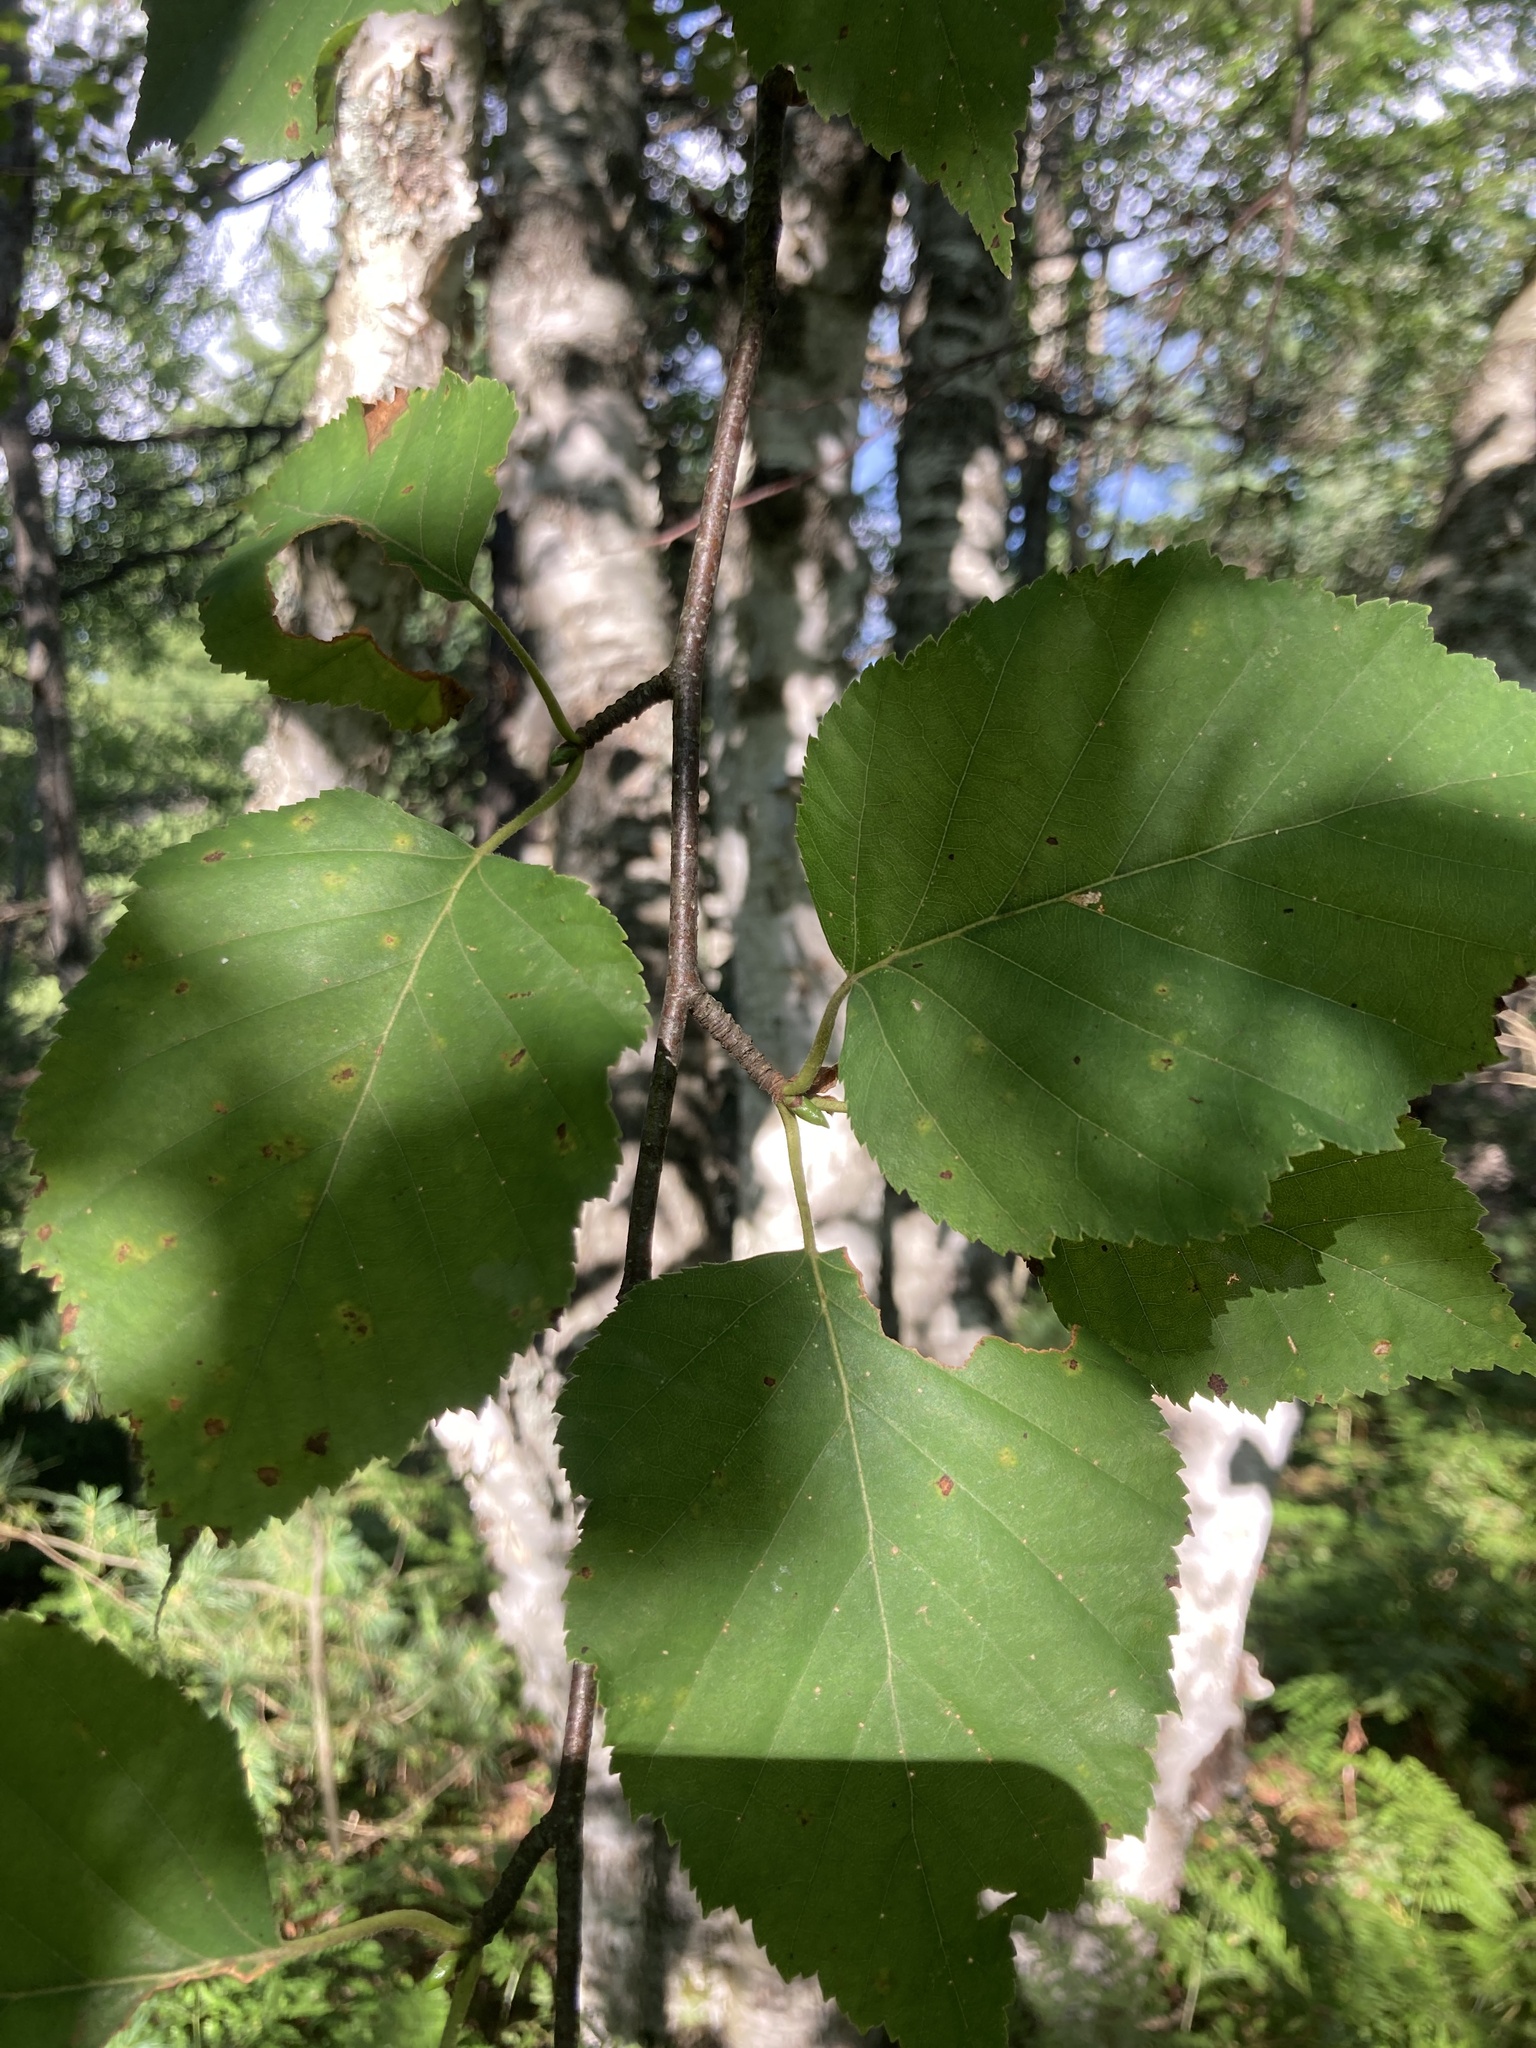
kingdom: Plantae
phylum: Tracheophyta
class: Magnoliopsida
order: Fagales
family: Betulaceae
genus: Betula
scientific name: Betula papyrifera
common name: Paper birch
